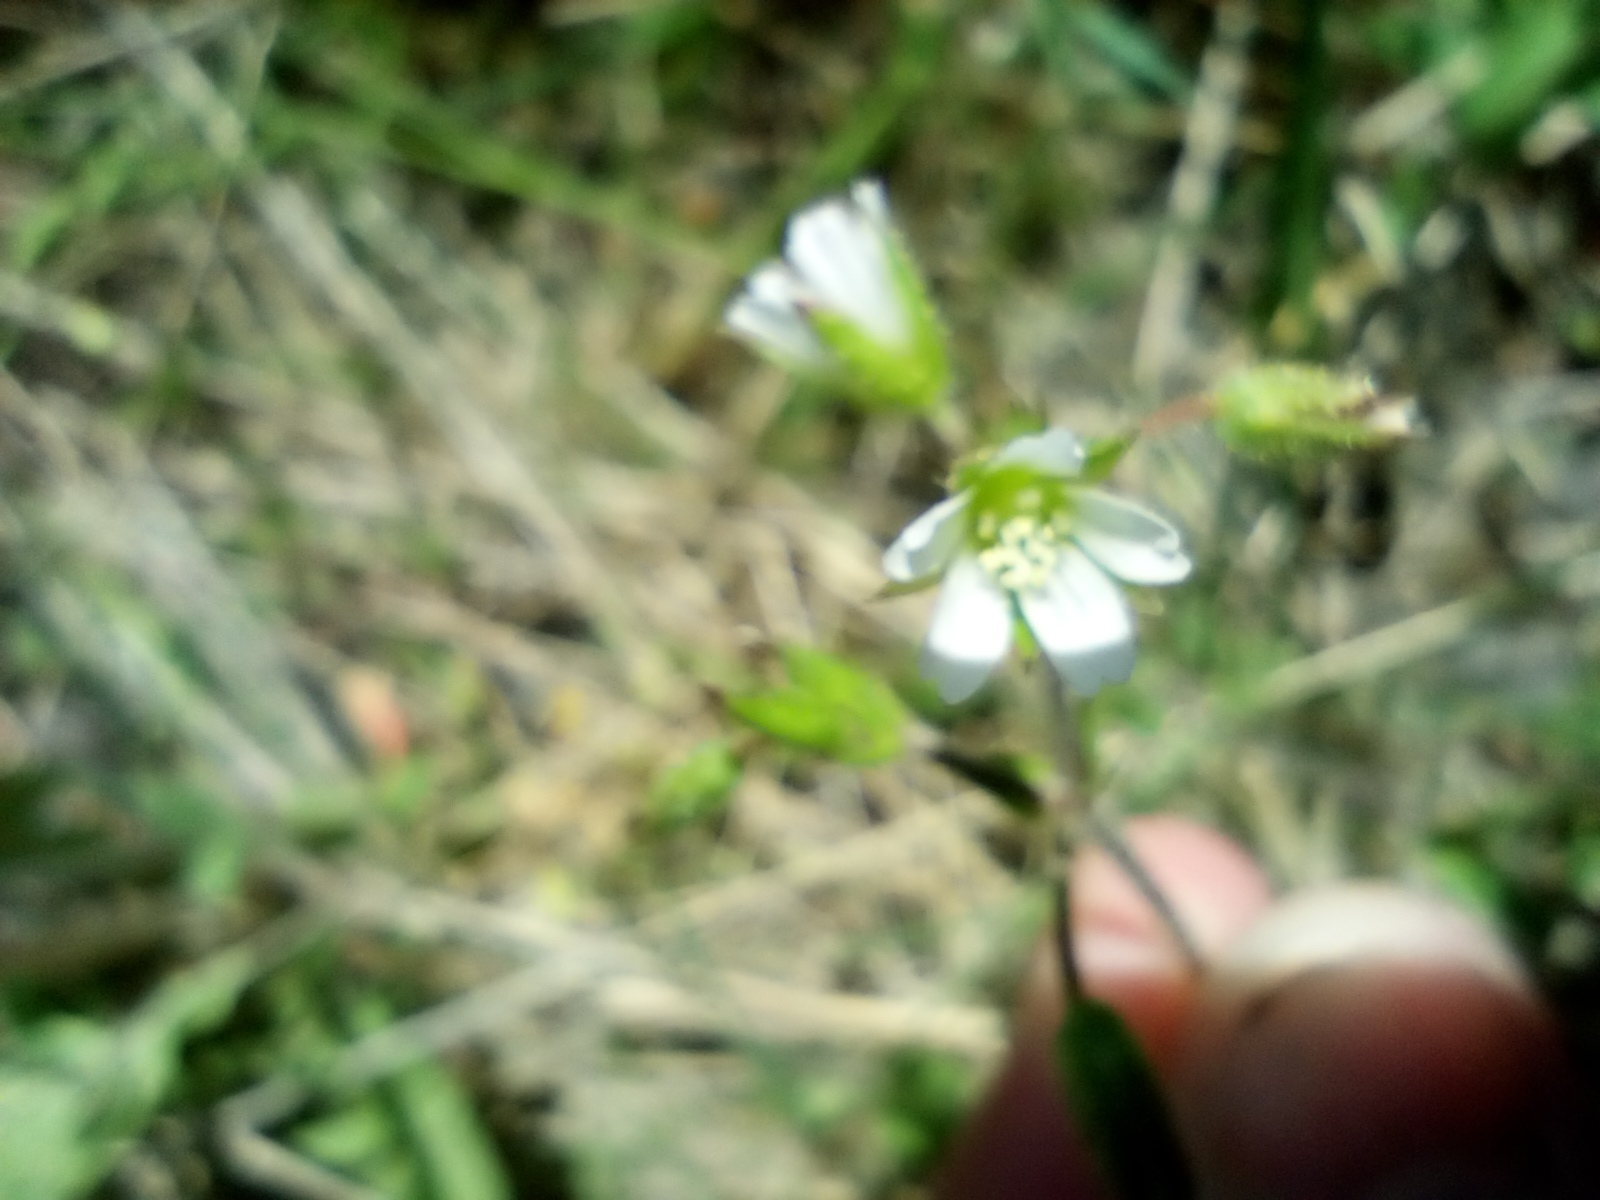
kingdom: Plantae
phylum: Tracheophyta
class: Magnoliopsida
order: Caryophyllales
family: Caryophyllaceae
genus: Cerastium
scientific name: Cerastium holosteoides
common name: Big chickweed
